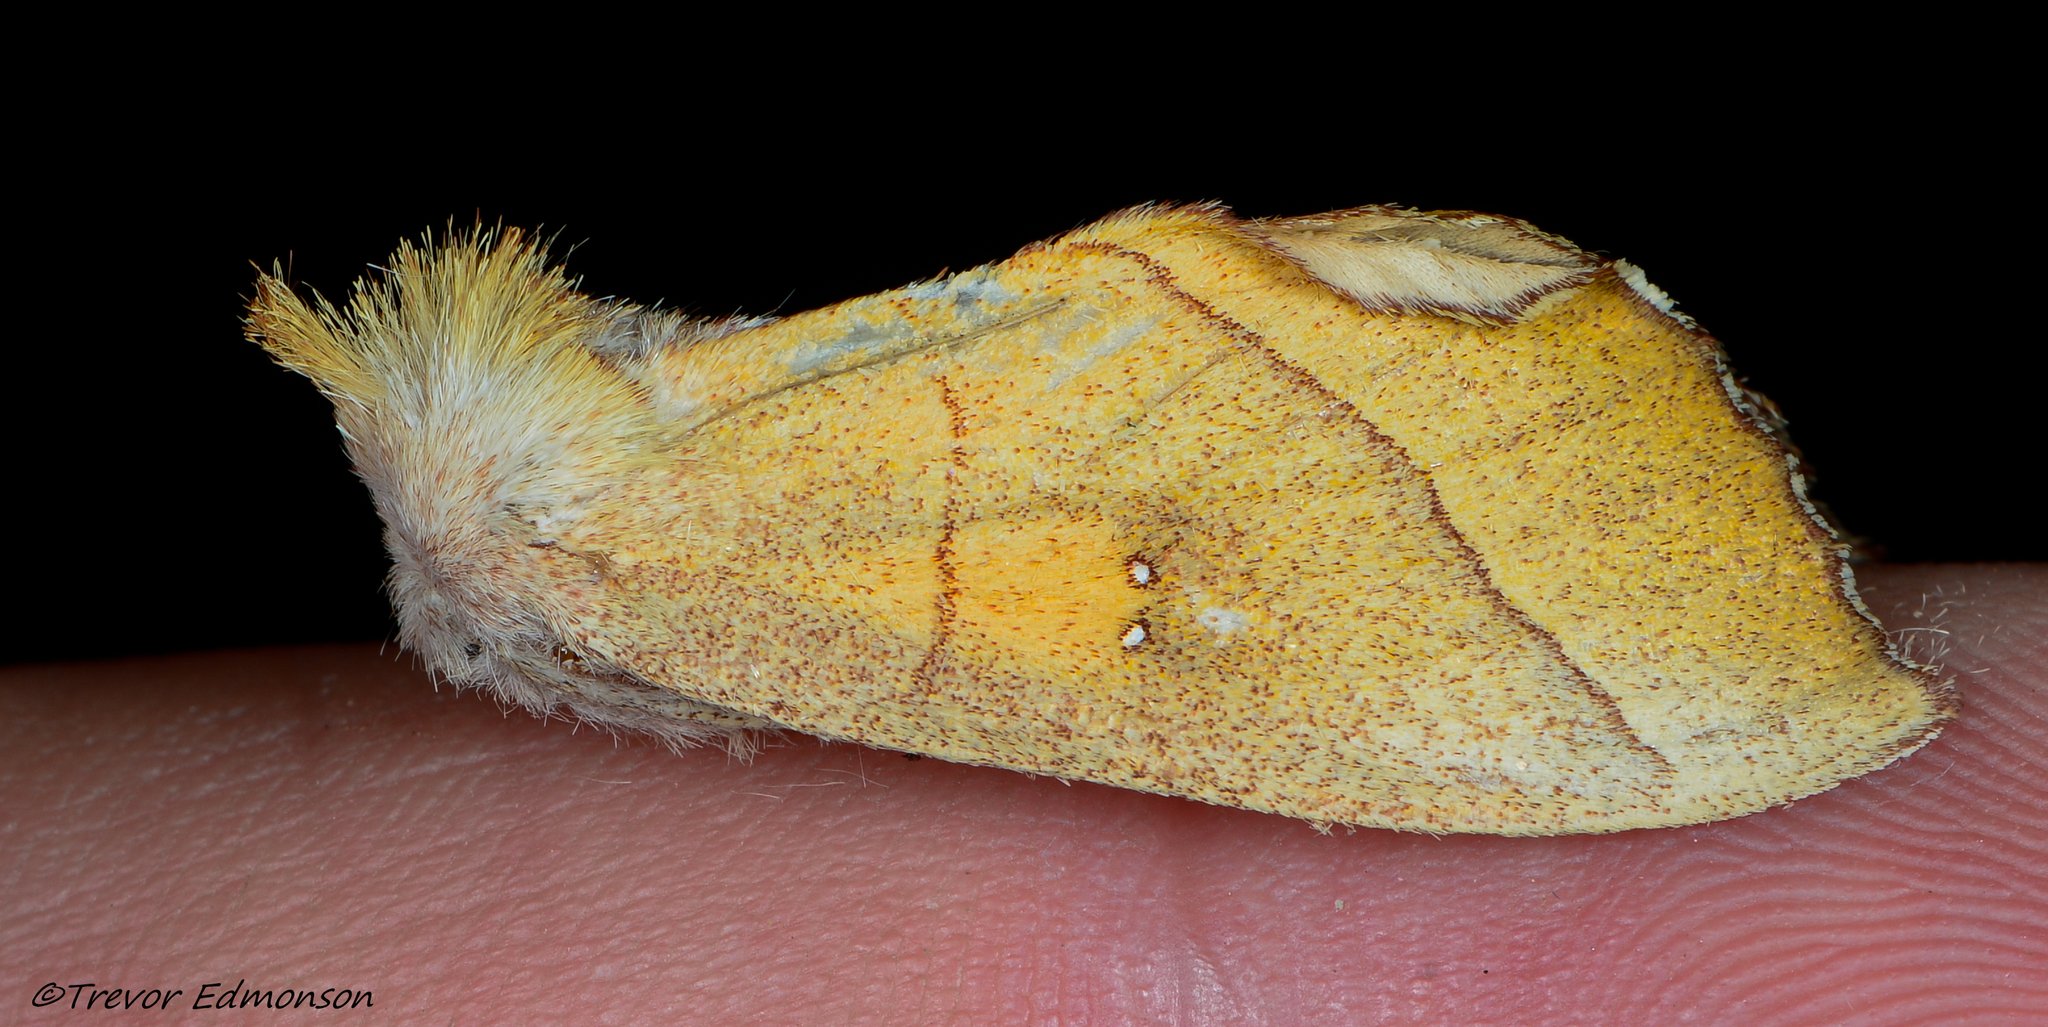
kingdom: Animalia
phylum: Arthropoda
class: Insecta
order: Lepidoptera
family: Notodontidae
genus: Nadata
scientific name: Nadata gibbosa
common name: White-dotted prominent
